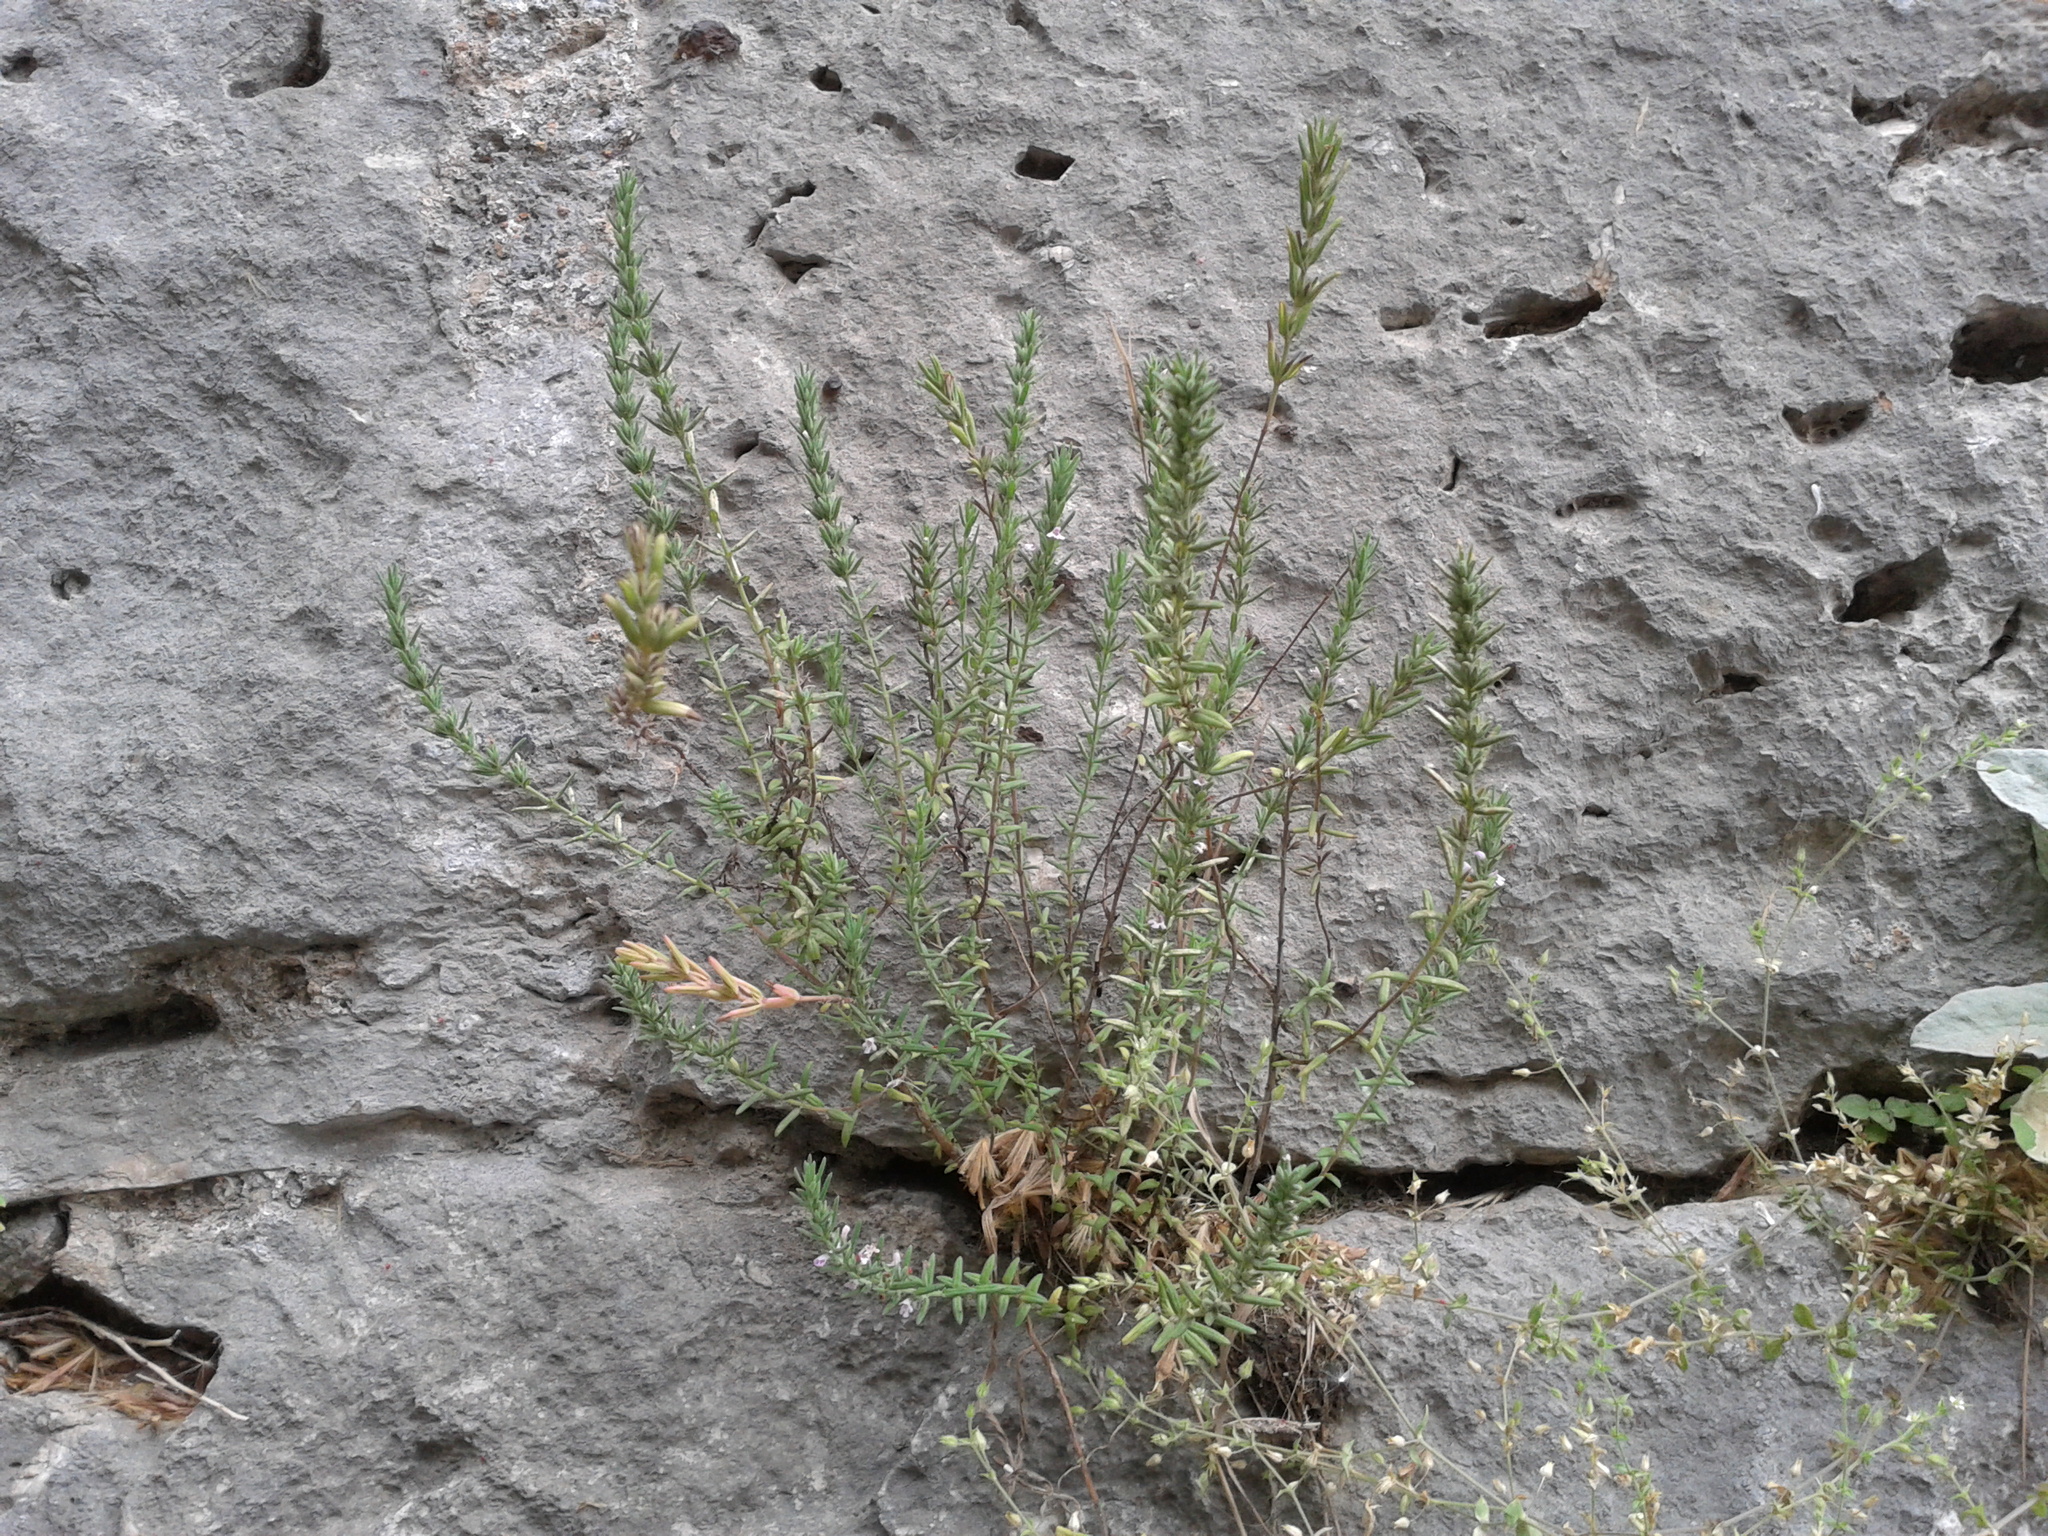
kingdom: Plantae
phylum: Tracheophyta
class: Magnoliopsida
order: Lamiales
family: Lamiaceae
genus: Micromeria
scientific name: Micromeria graeca
